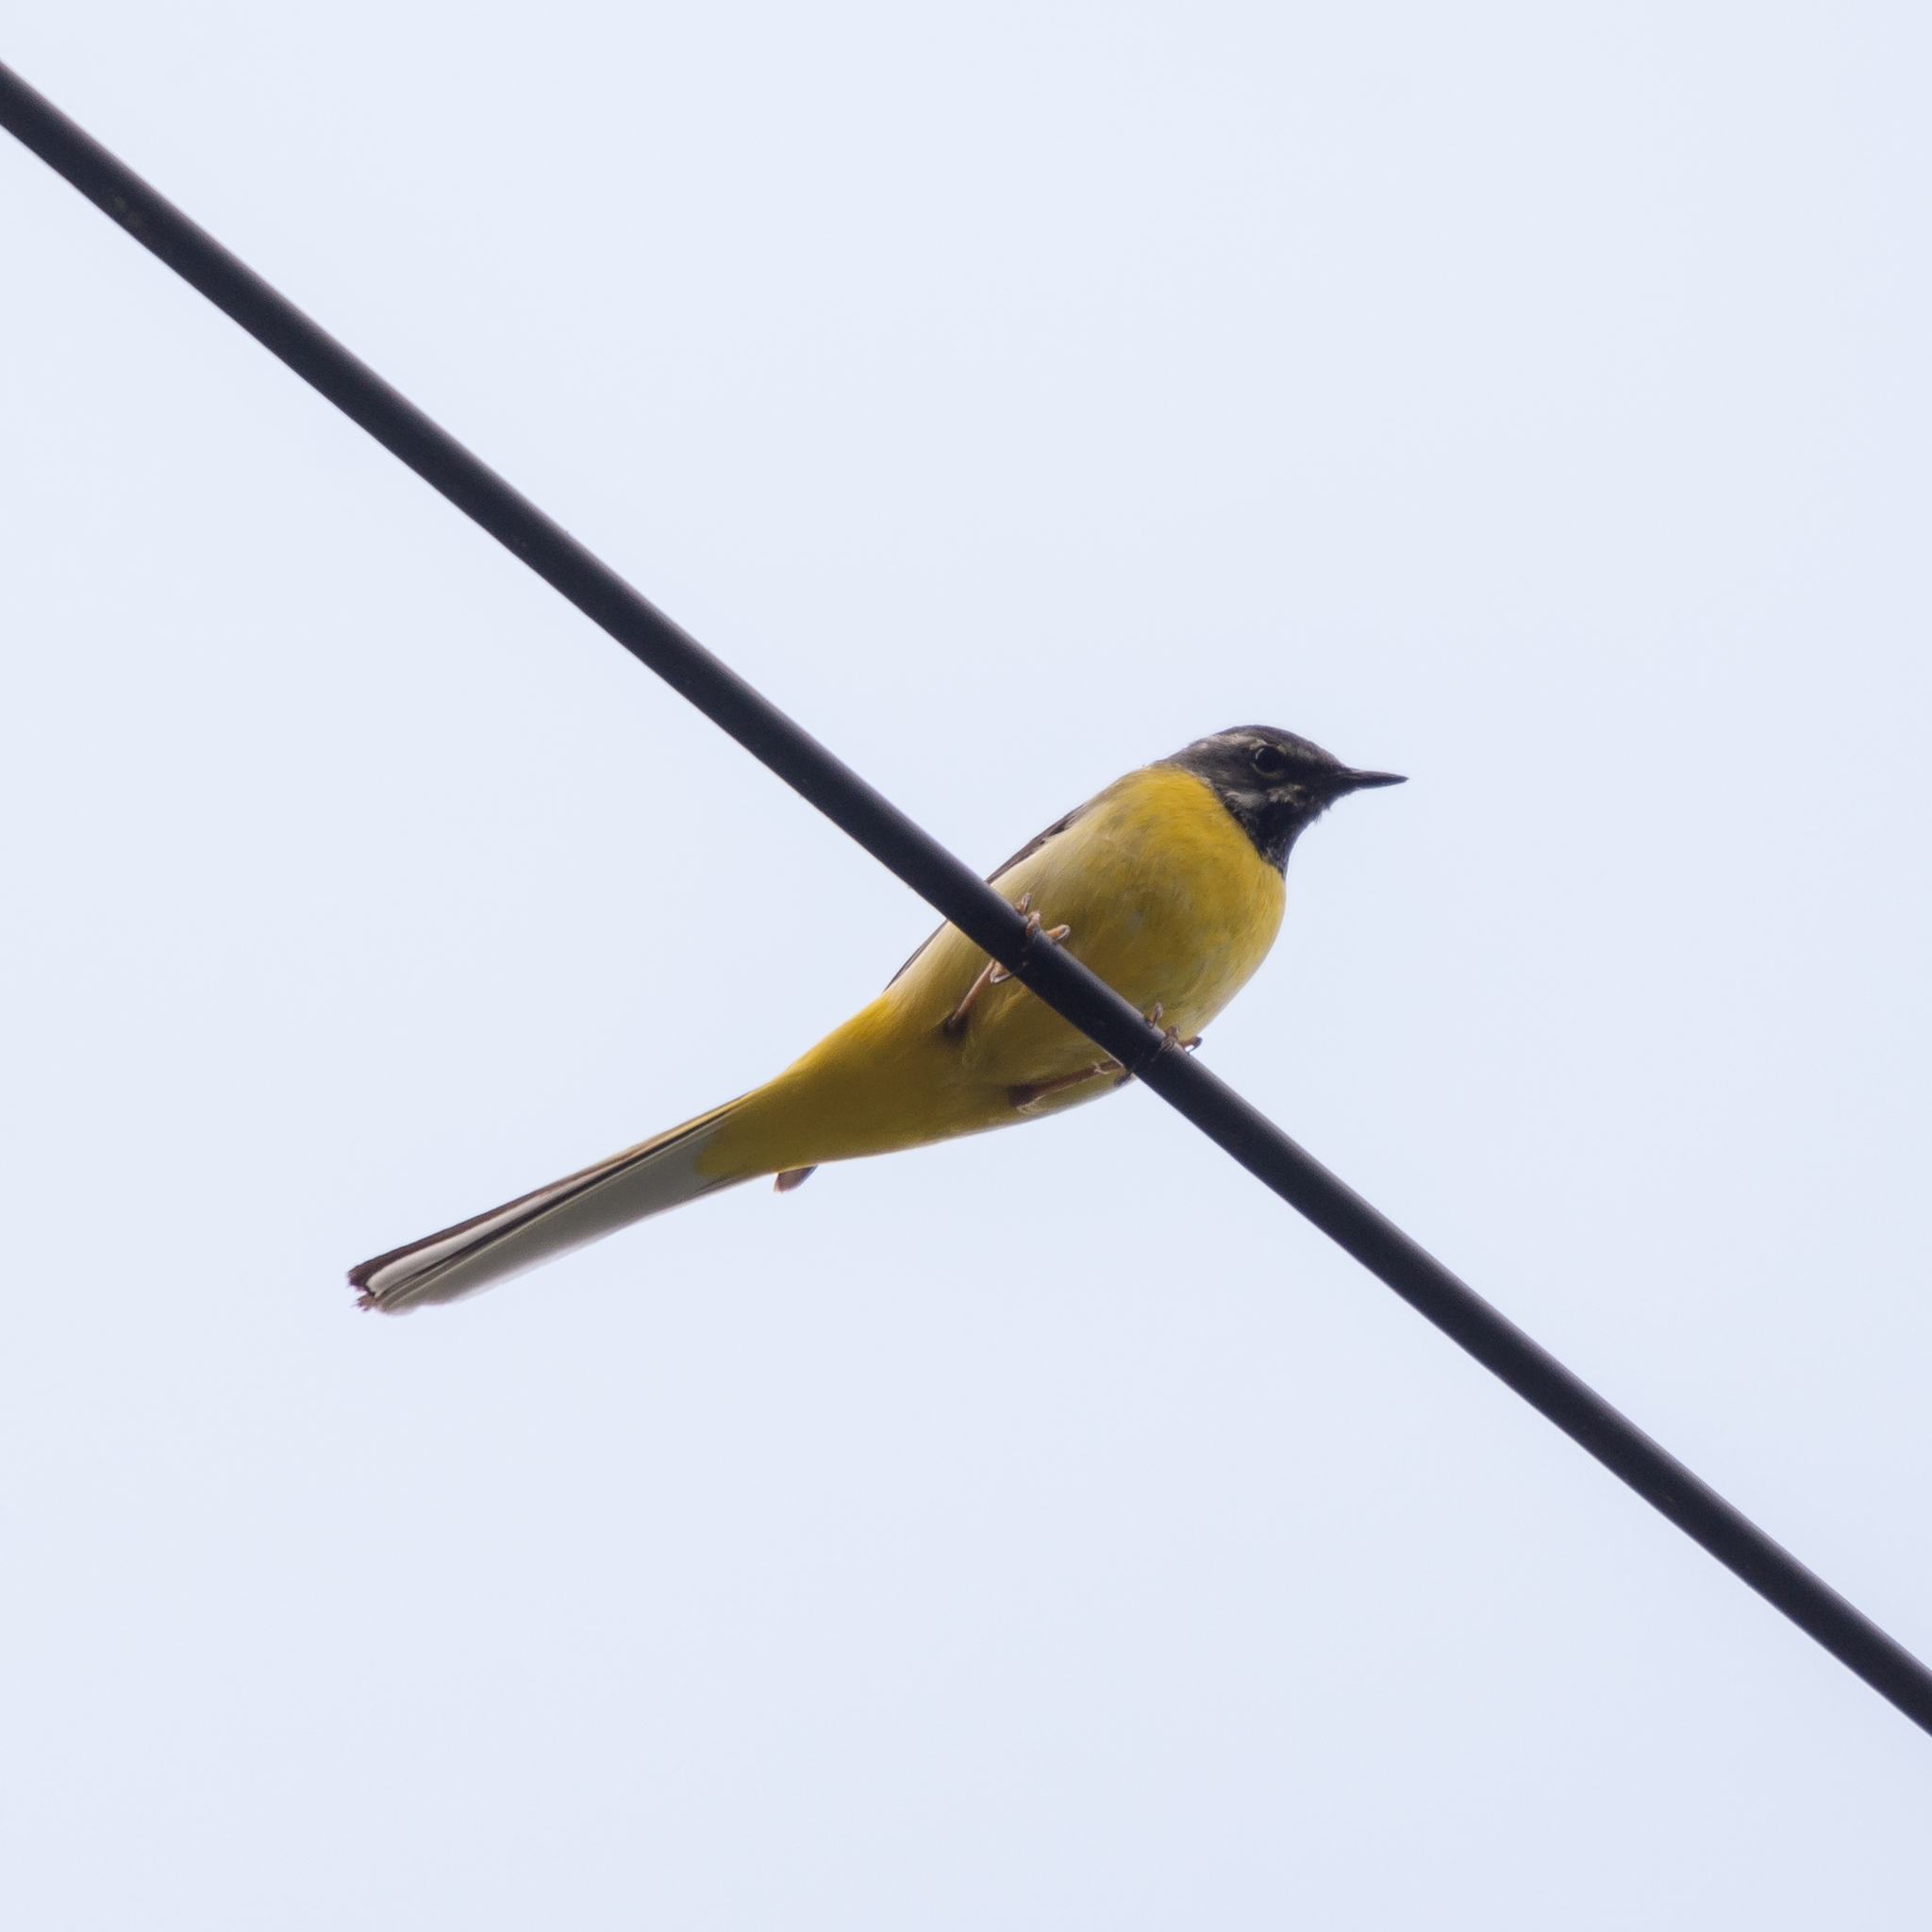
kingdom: Animalia
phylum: Chordata
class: Aves
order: Passeriformes
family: Motacillidae
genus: Motacilla
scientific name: Motacilla cinerea
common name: Grey wagtail
